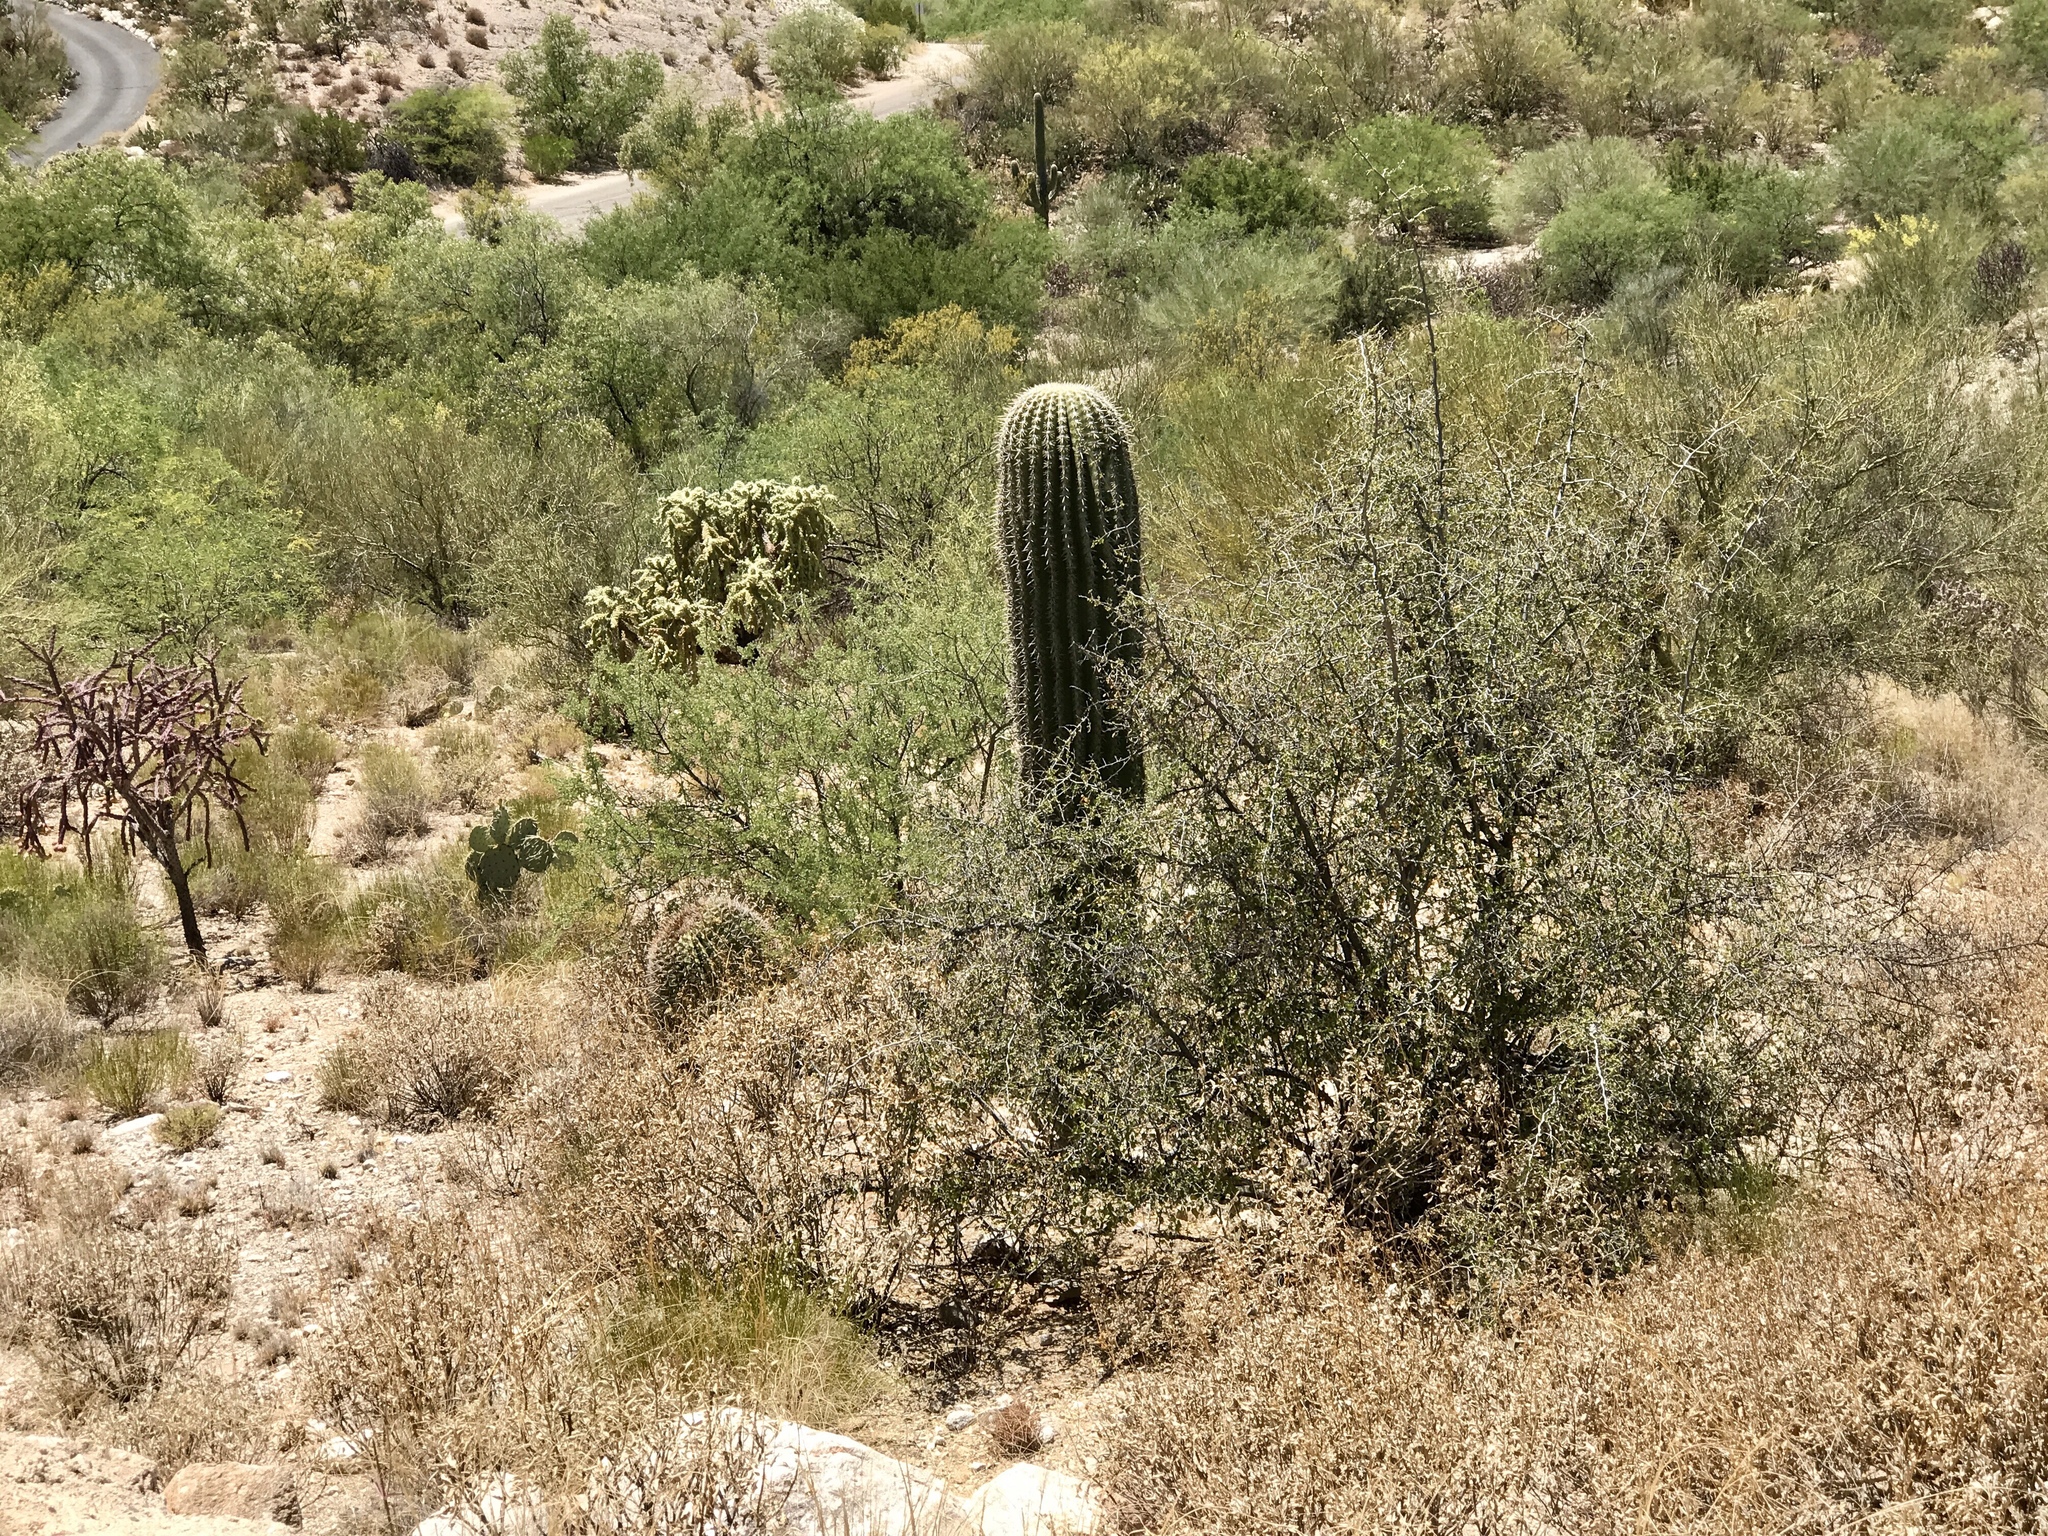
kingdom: Plantae
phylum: Tracheophyta
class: Magnoliopsida
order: Caryophyllales
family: Cactaceae
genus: Carnegiea
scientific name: Carnegiea gigantea
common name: Saguaro
